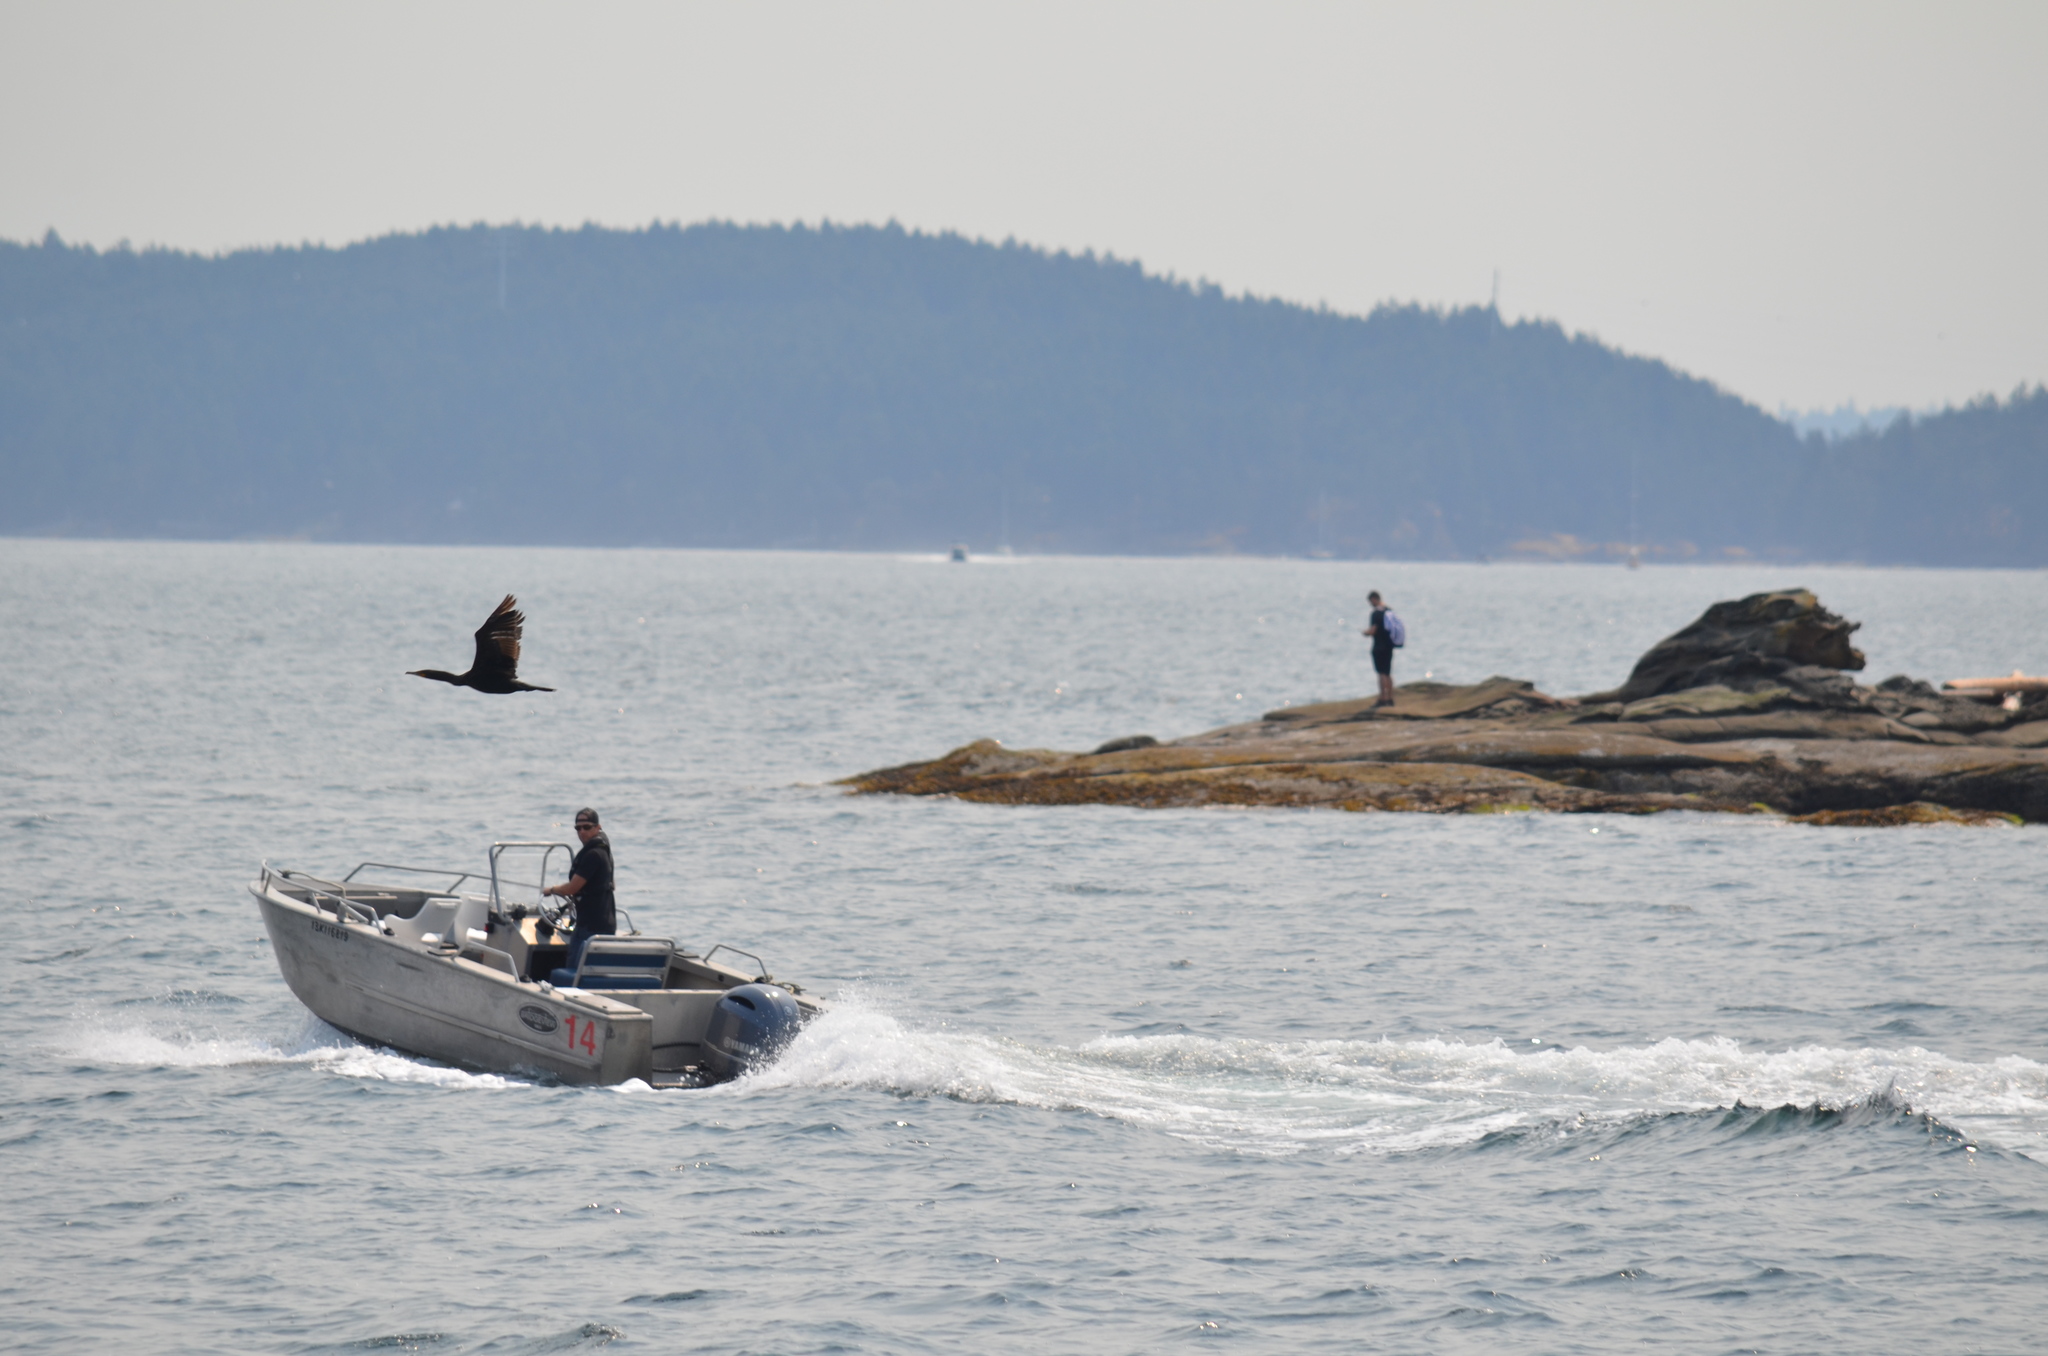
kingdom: Animalia
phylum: Chordata
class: Aves
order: Suliformes
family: Phalacrocoracidae
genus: Phalacrocorax
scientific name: Phalacrocorax auritus
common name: Double-crested cormorant
